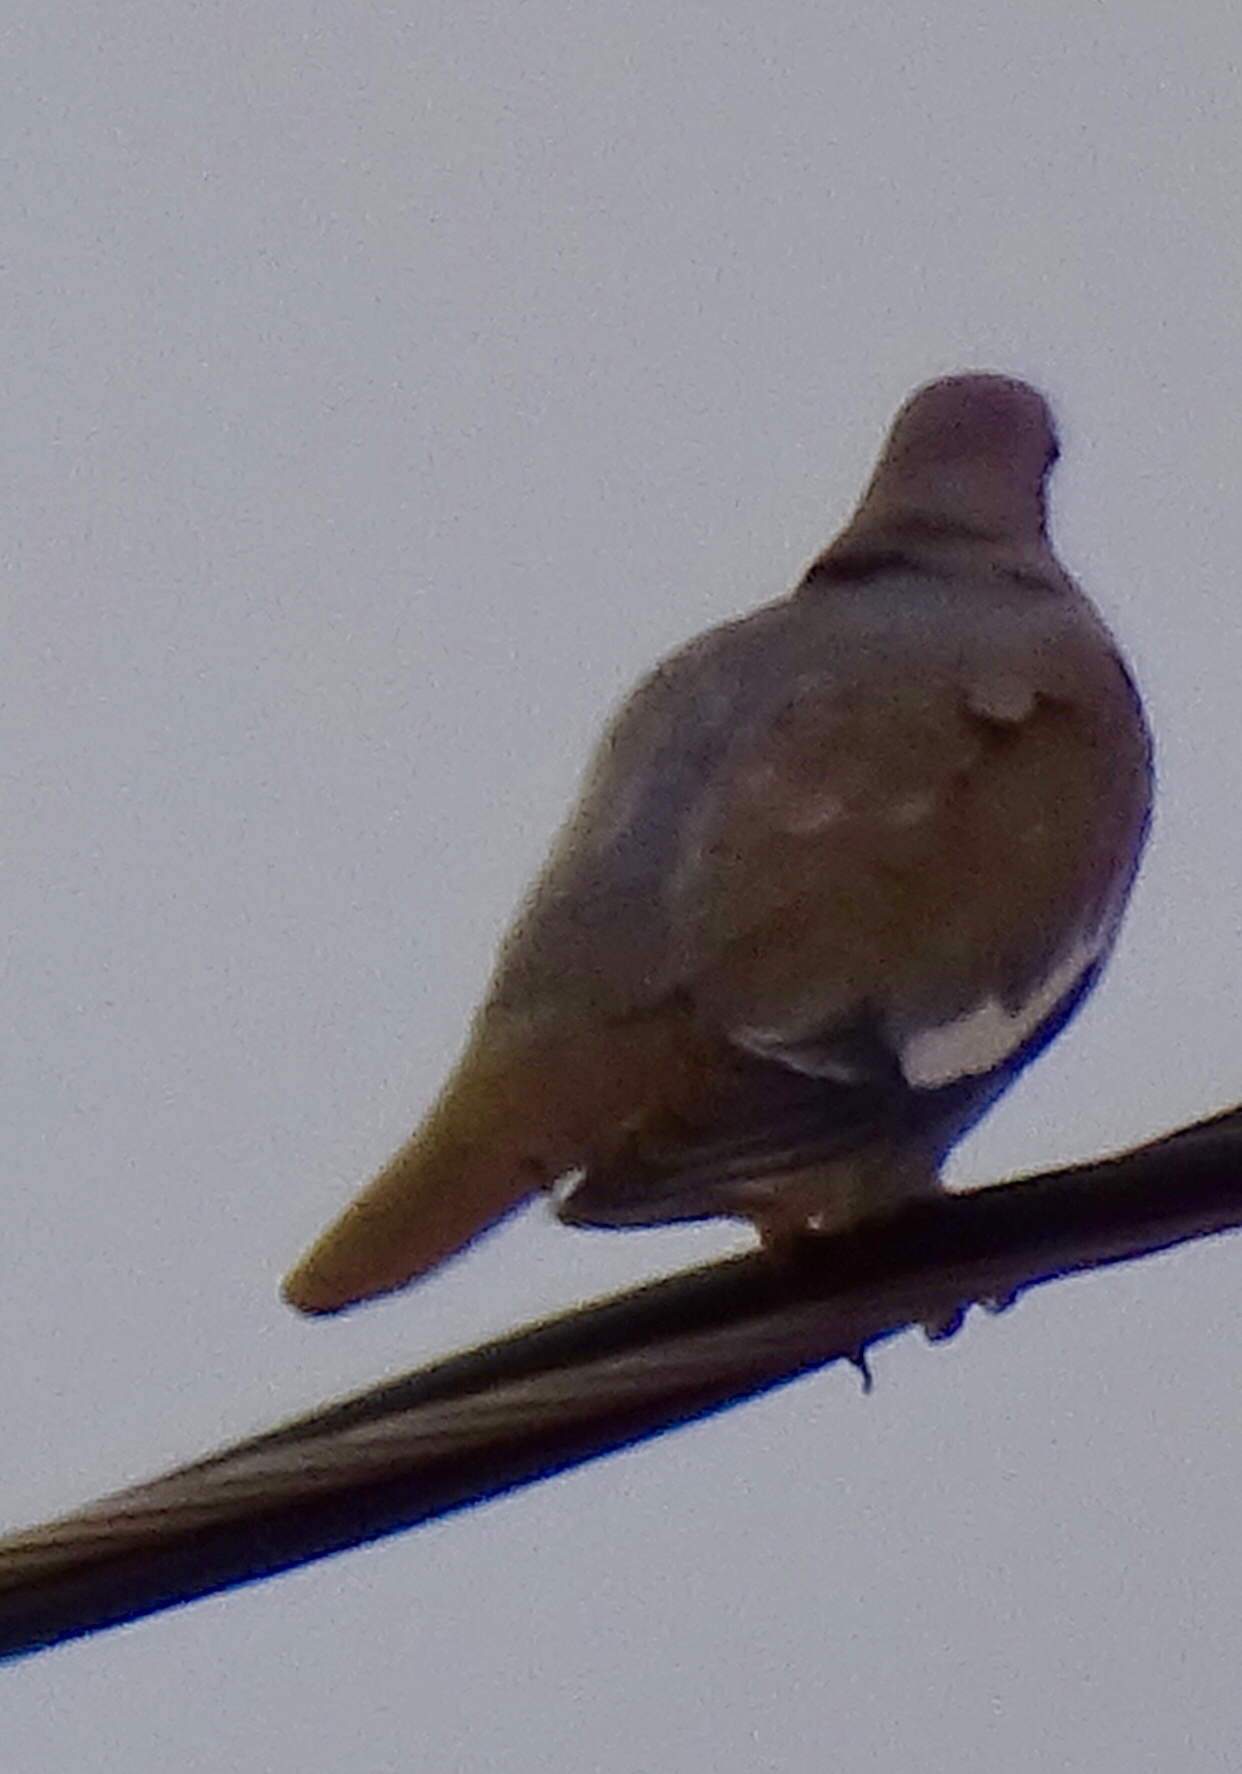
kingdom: Animalia
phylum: Chordata
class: Aves
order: Columbiformes
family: Columbidae
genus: Zenaida
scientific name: Zenaida asiatica
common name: White-winged dove
